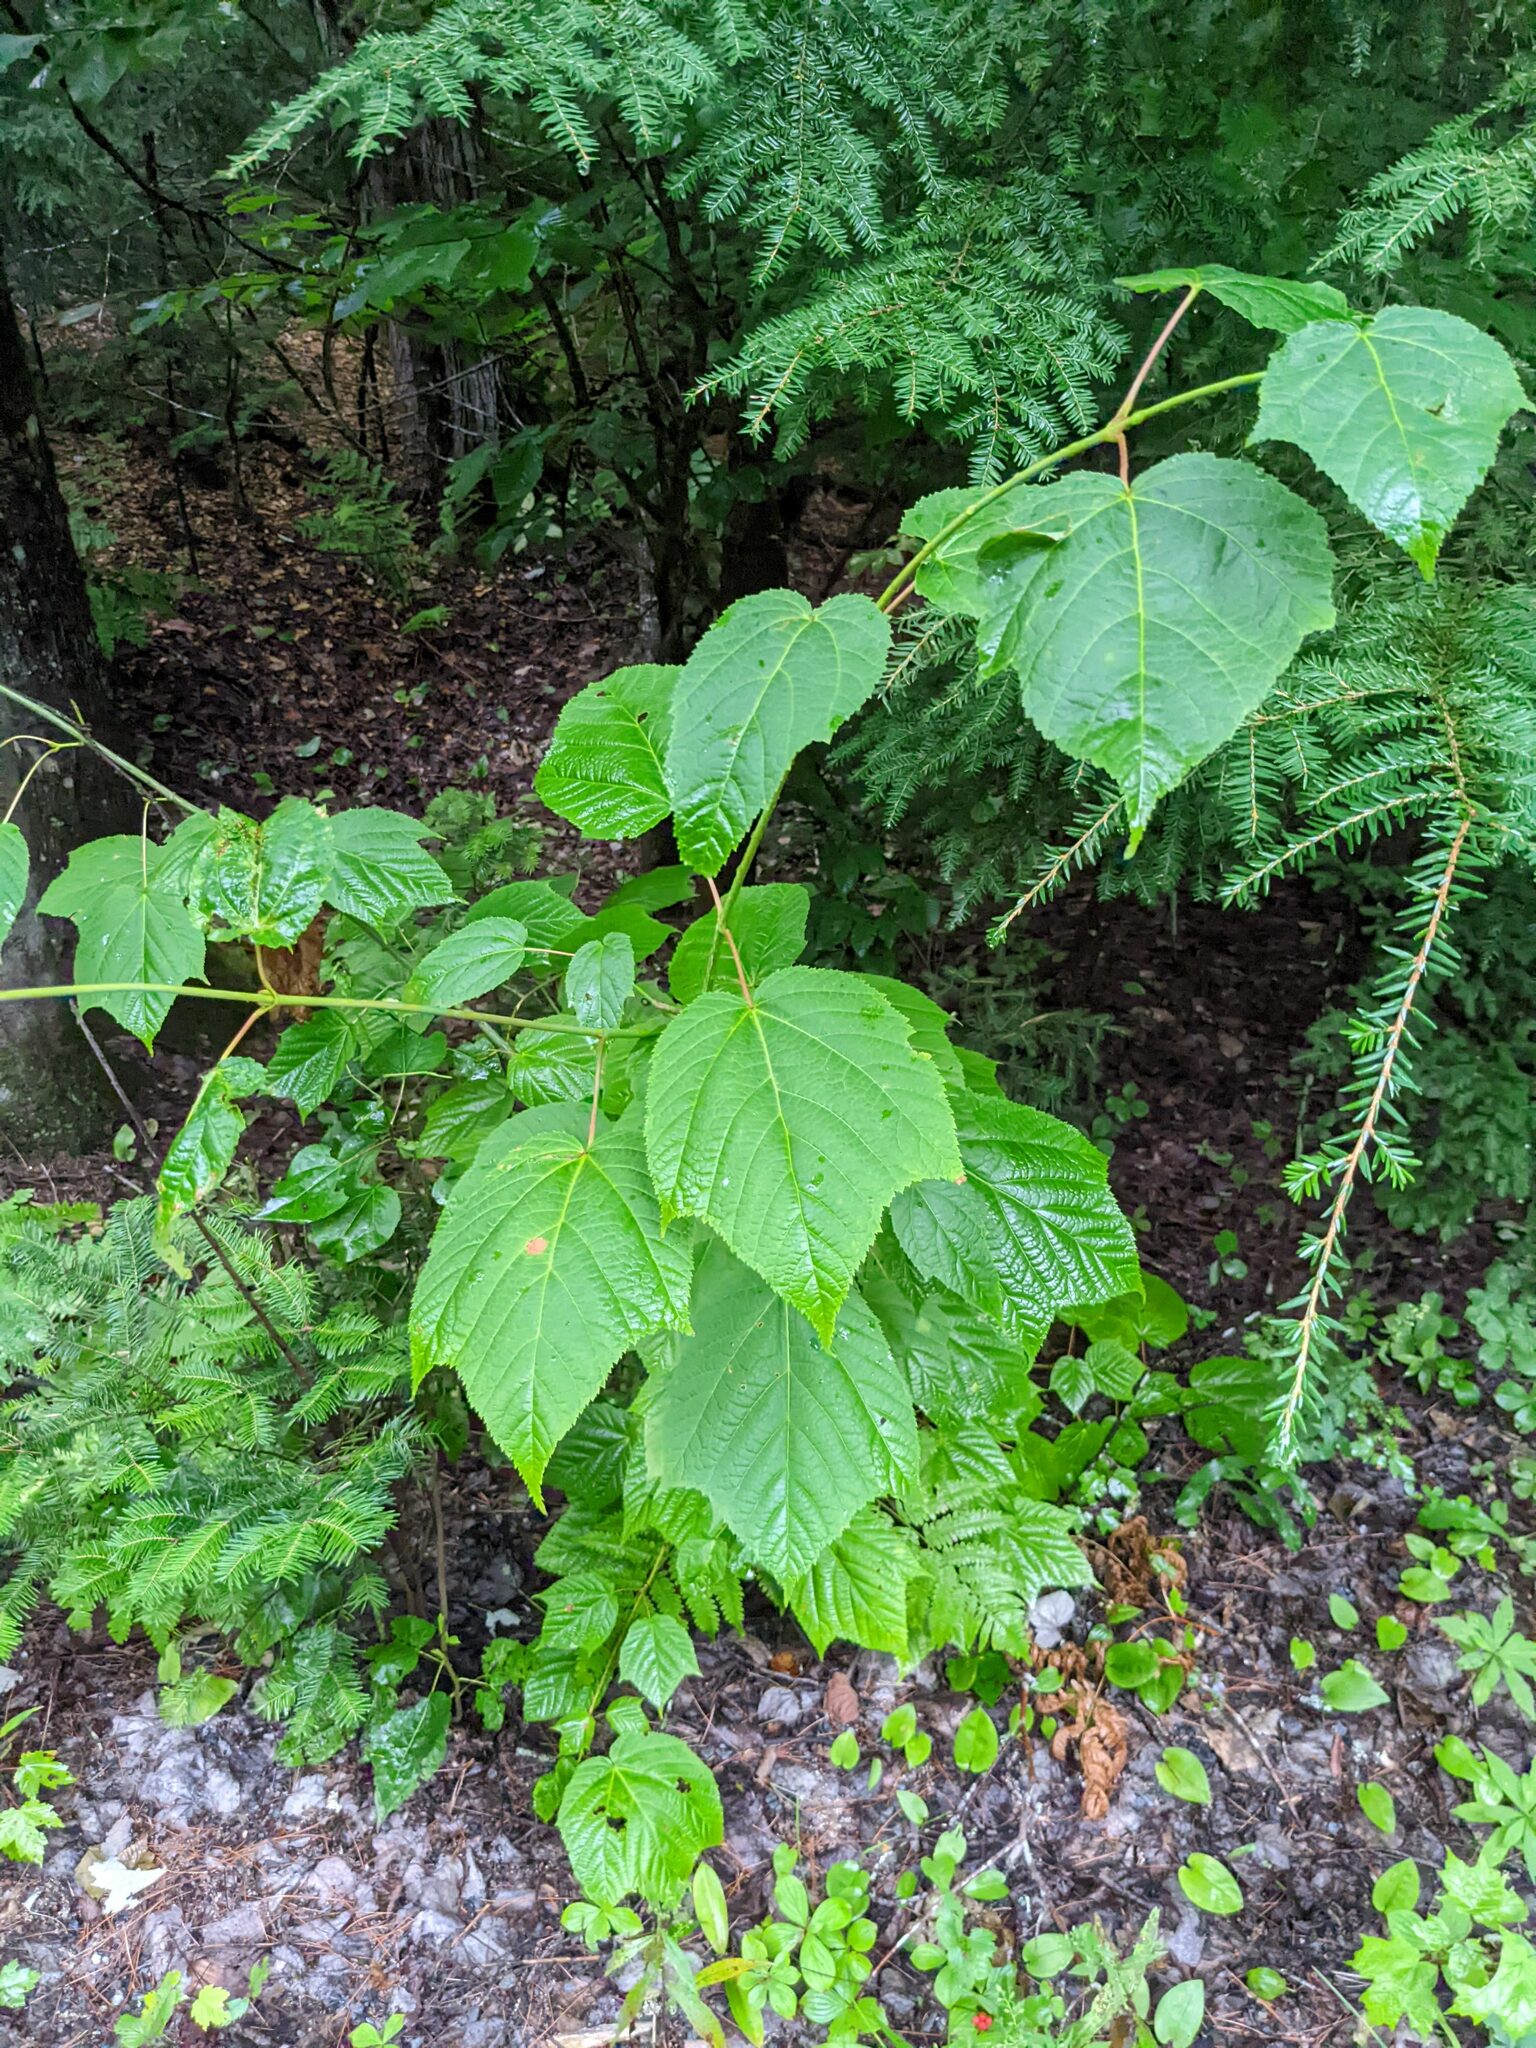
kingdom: Plantae
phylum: Tracheophyta
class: Magnoliopsida
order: Sapindales
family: Sapindaceae
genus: Acer
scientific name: Acer pensylvanicum
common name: Moosewood
